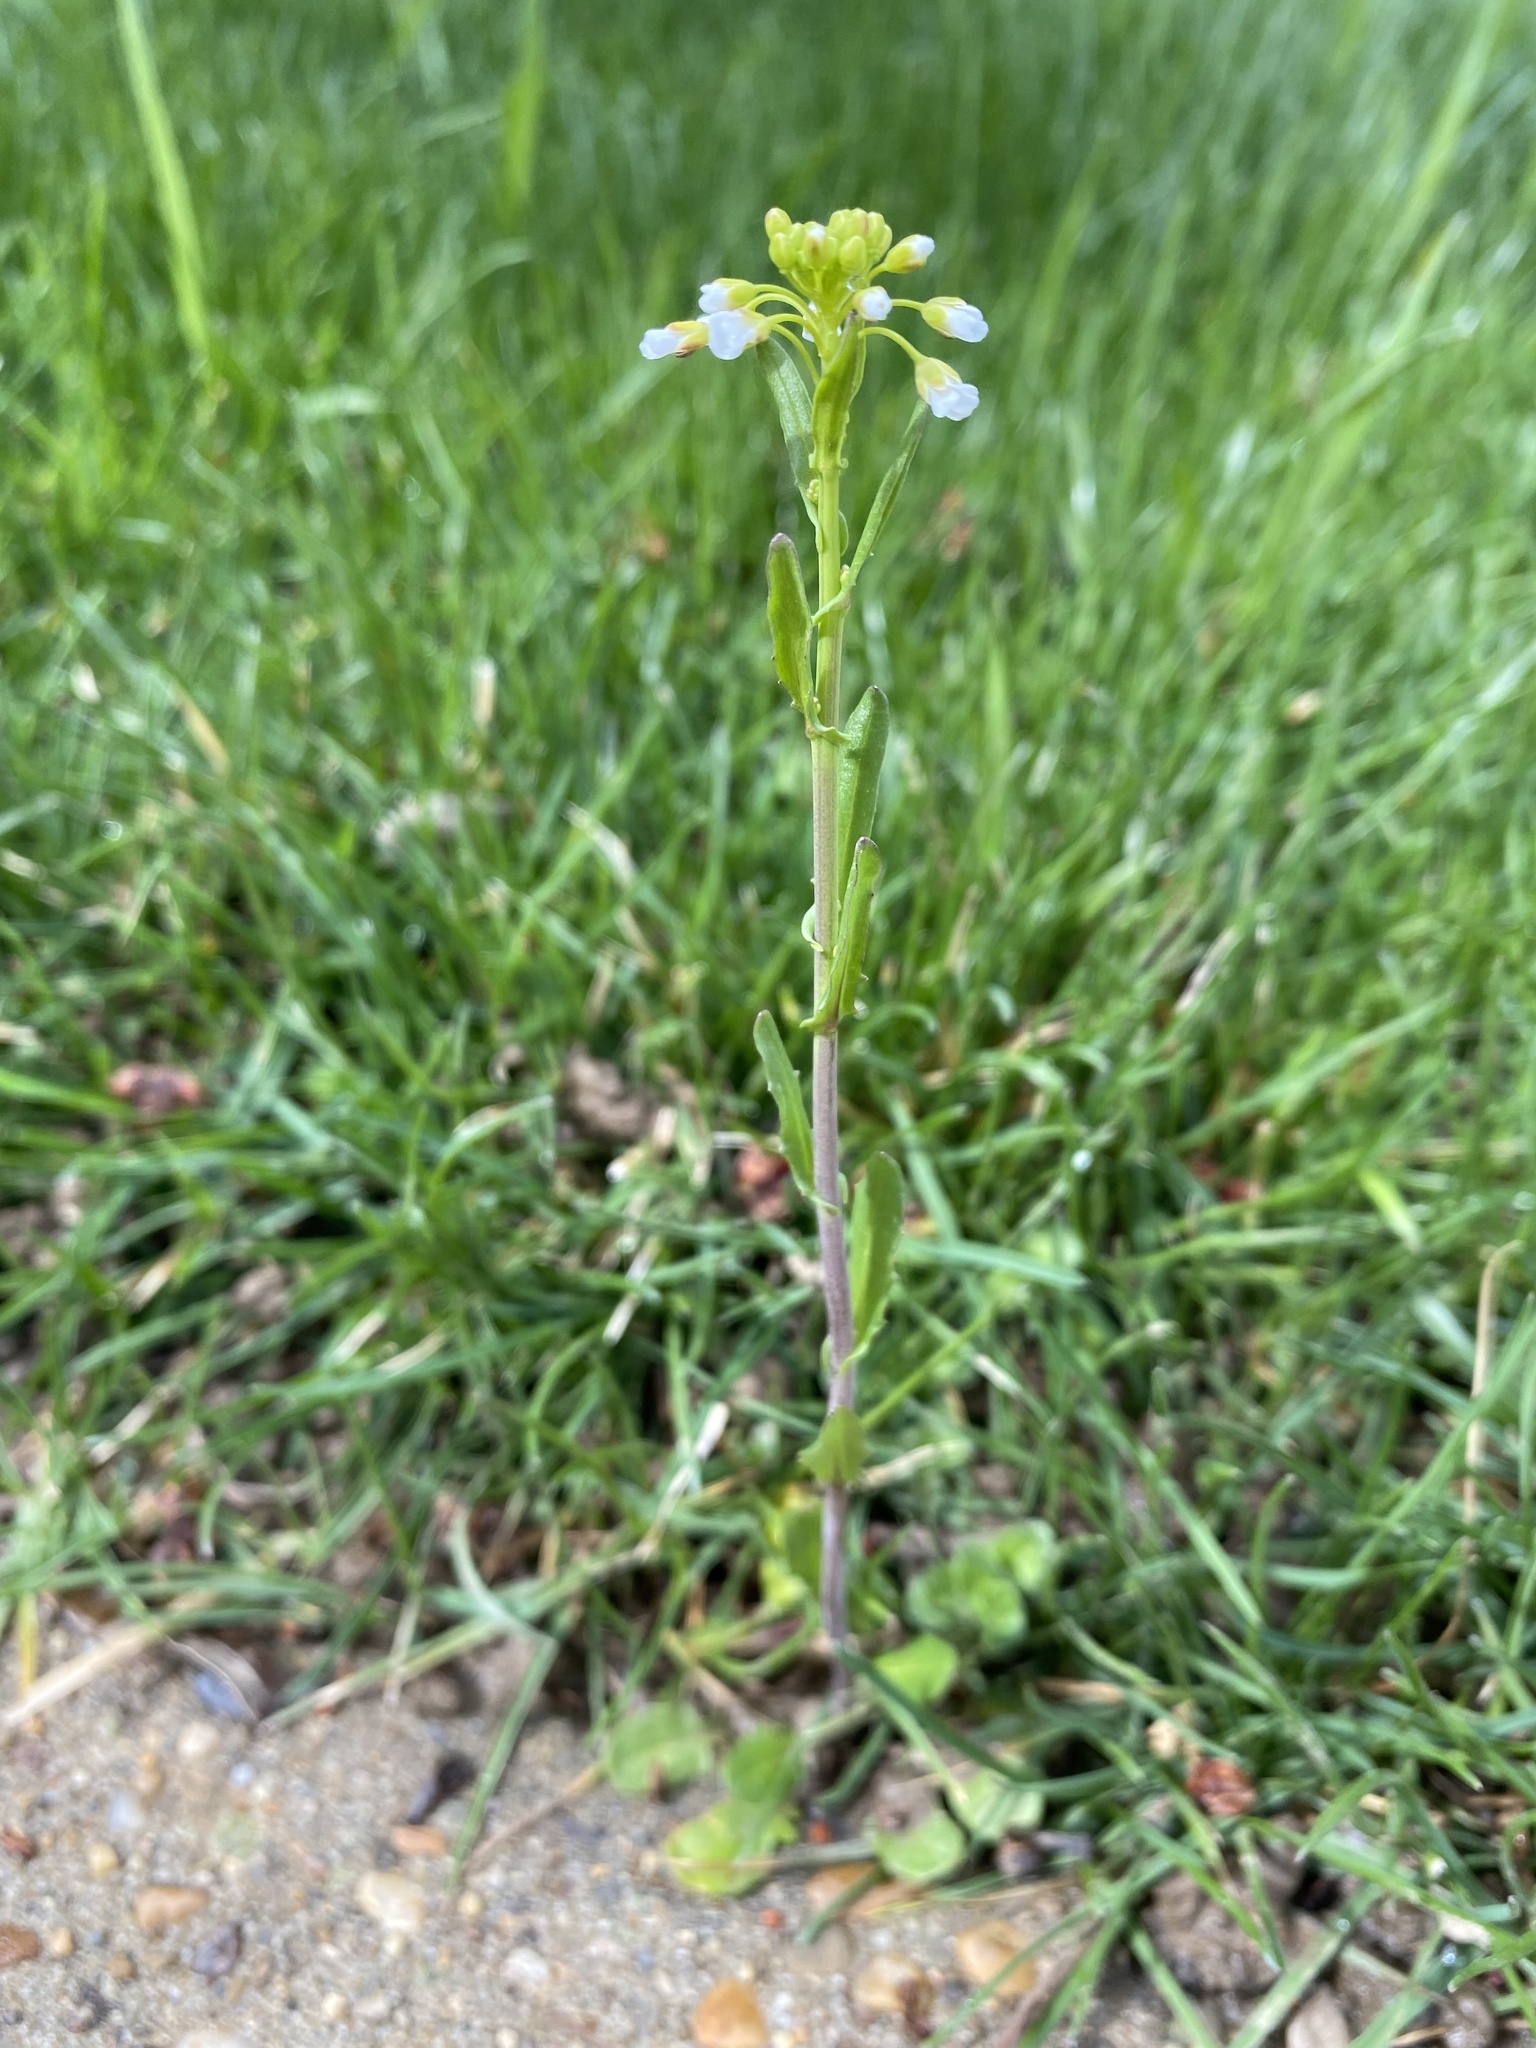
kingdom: Plantae
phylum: Tracheophyta
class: Magnoliopsida
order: Brassicales
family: Brassicaceae
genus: Mummenhoffia
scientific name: Mummenhoffia alliacea
